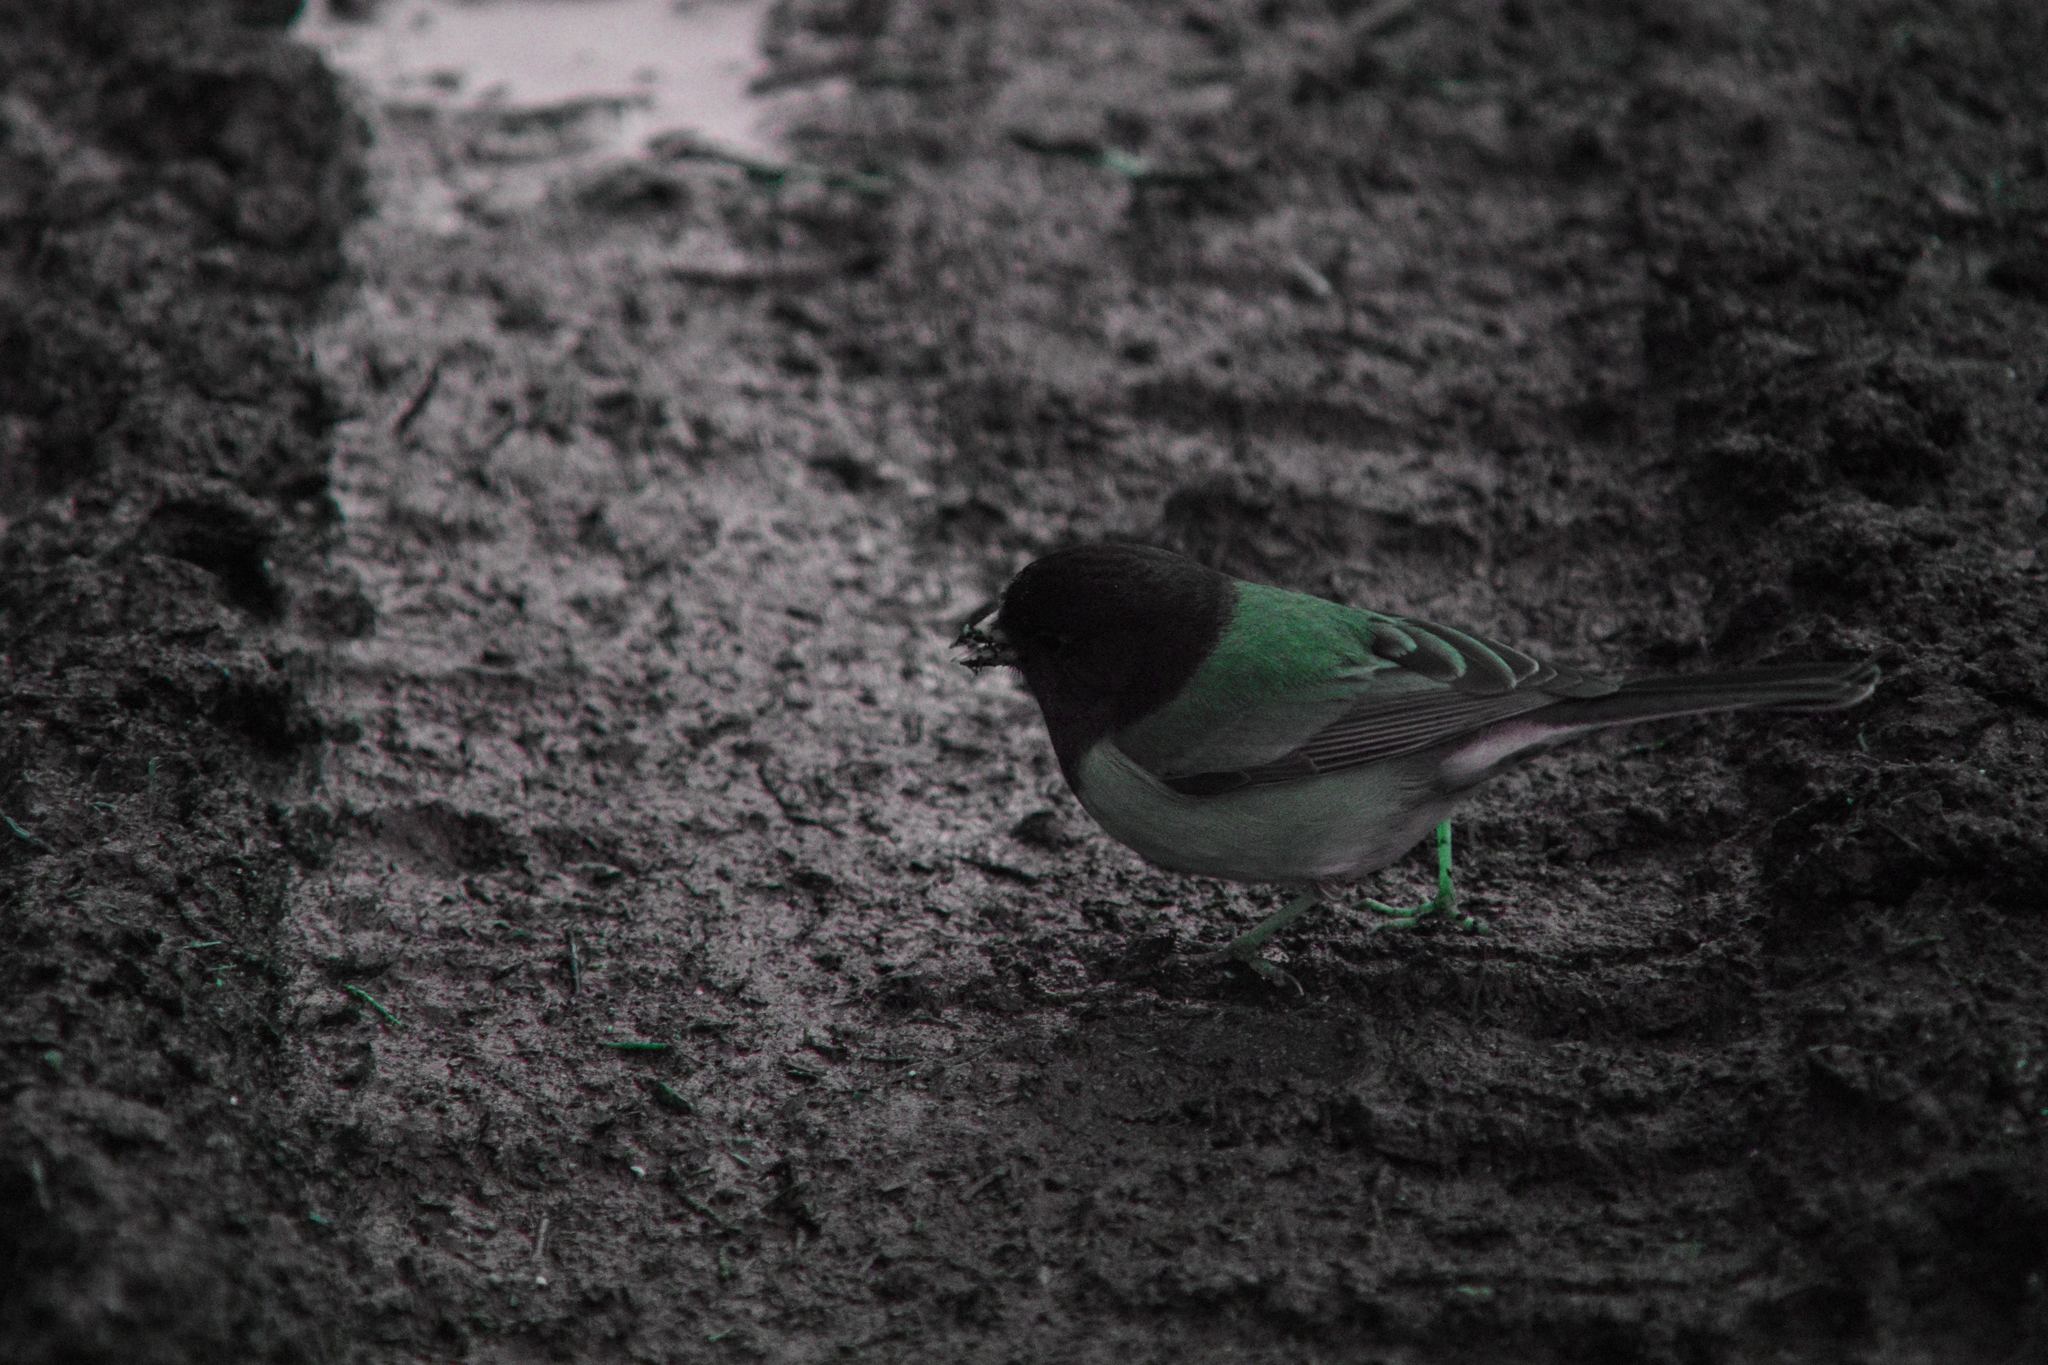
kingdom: Animalia
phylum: Chordata
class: Aves
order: Passeriformes
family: Passerellidae
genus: Junco
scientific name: Junco hyemalis
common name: Dark-eyed junco
